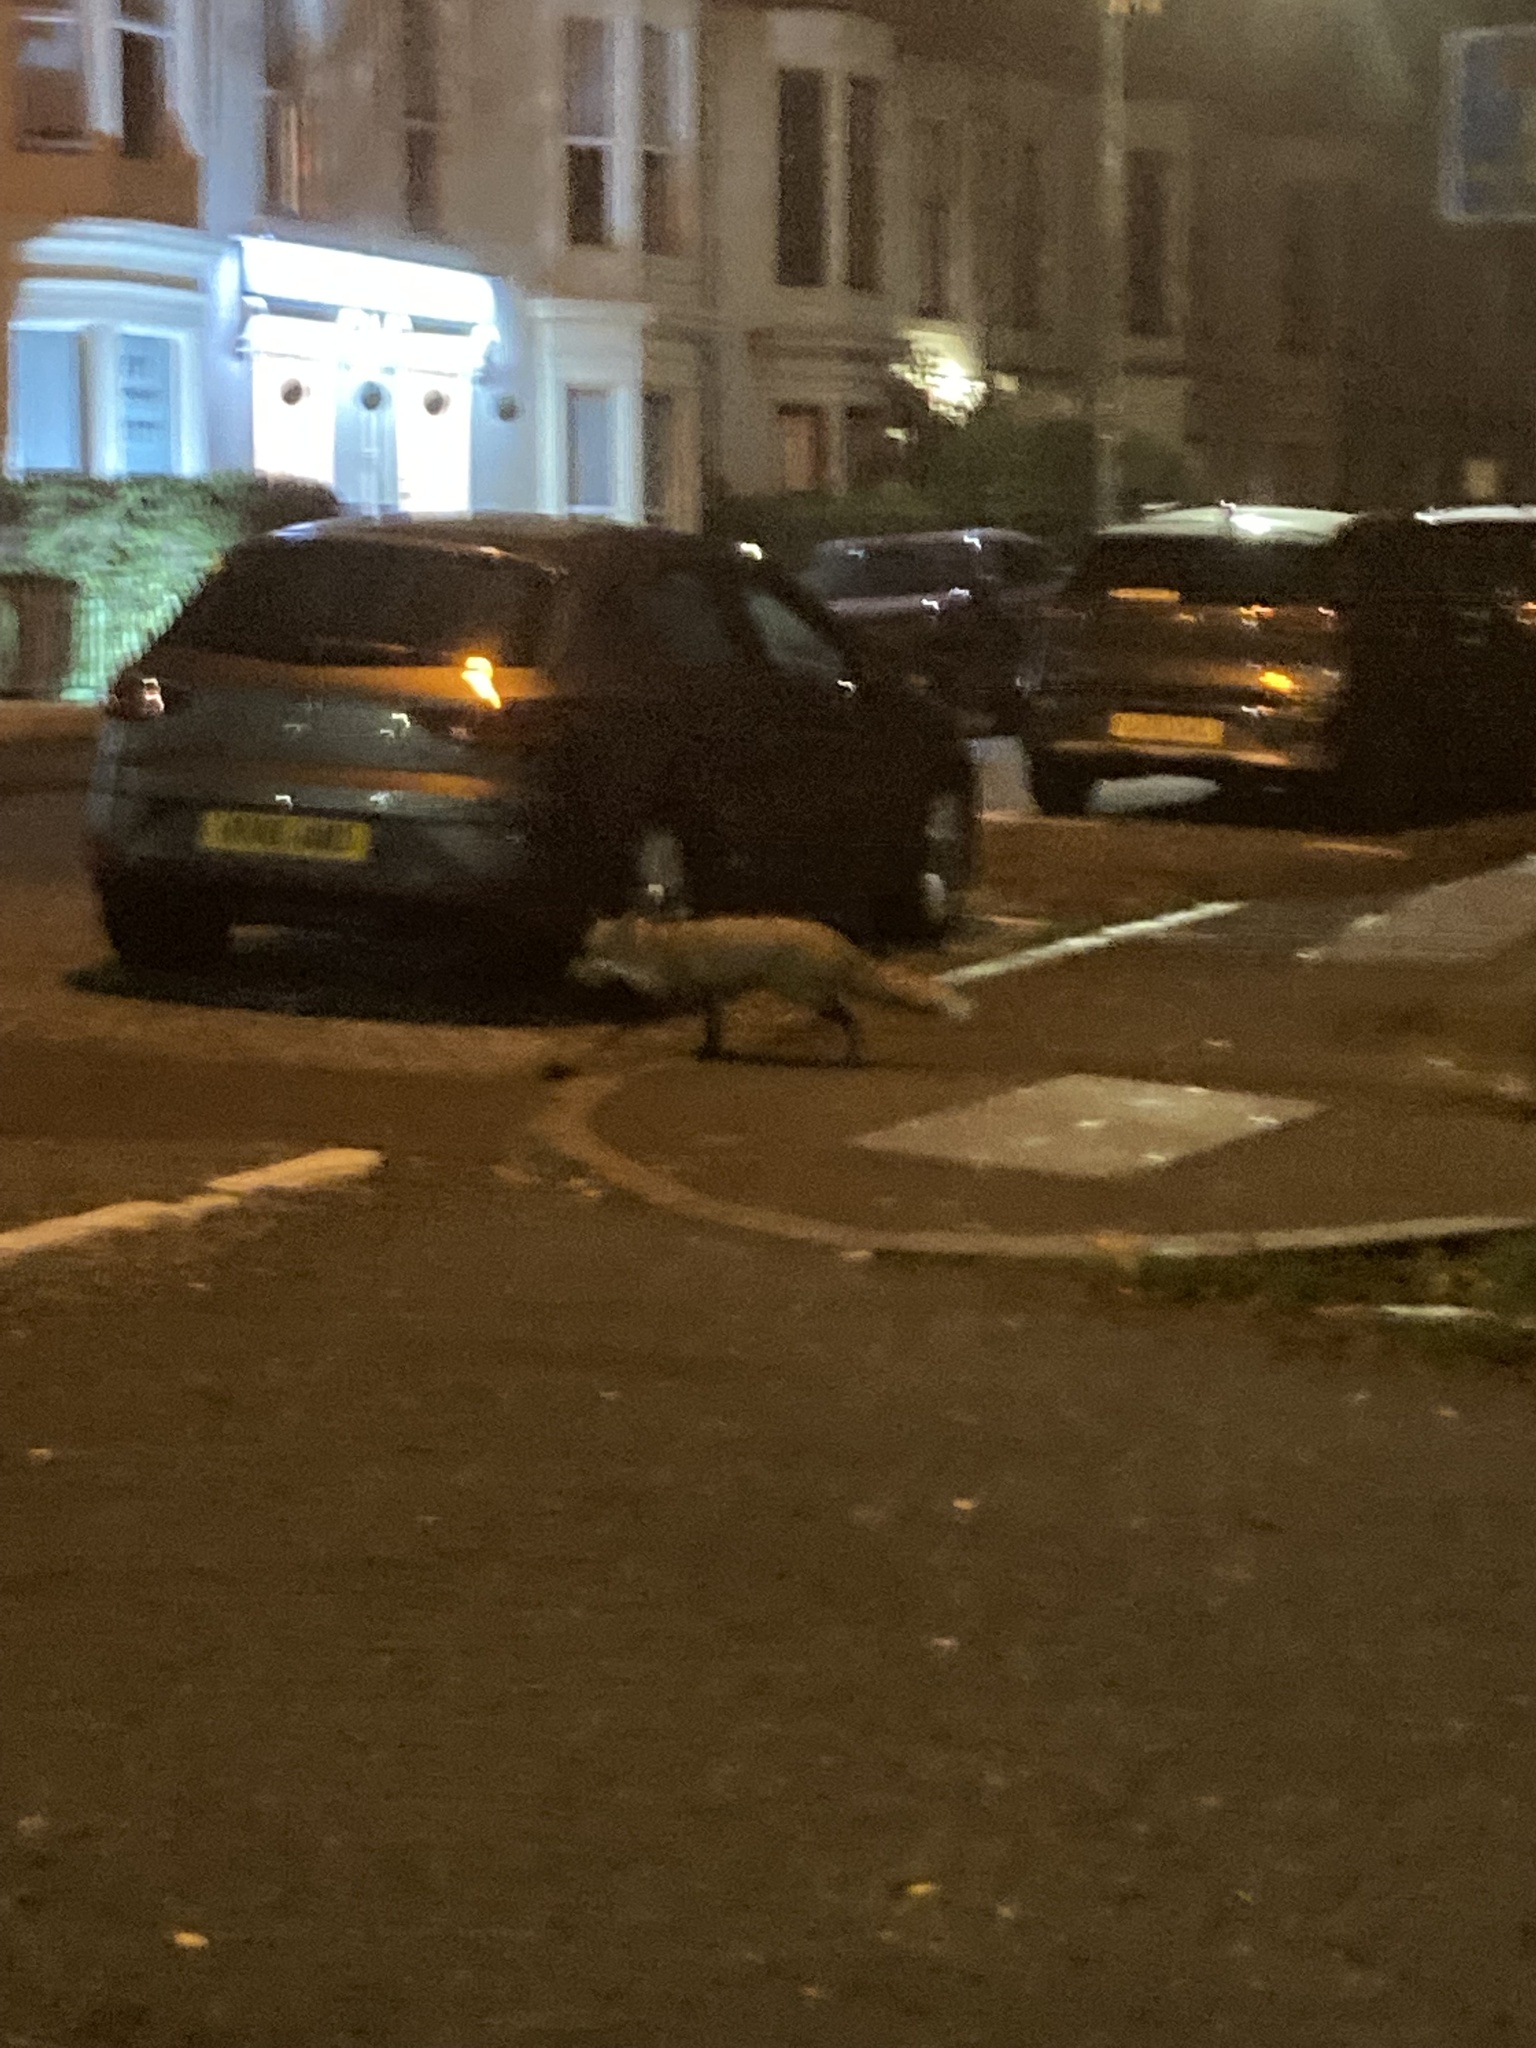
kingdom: Animalia
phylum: Chordata
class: Mammalia
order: Carnivora
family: Canidae
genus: Vulpes
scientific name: Vulpes vulpes
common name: Red fox
